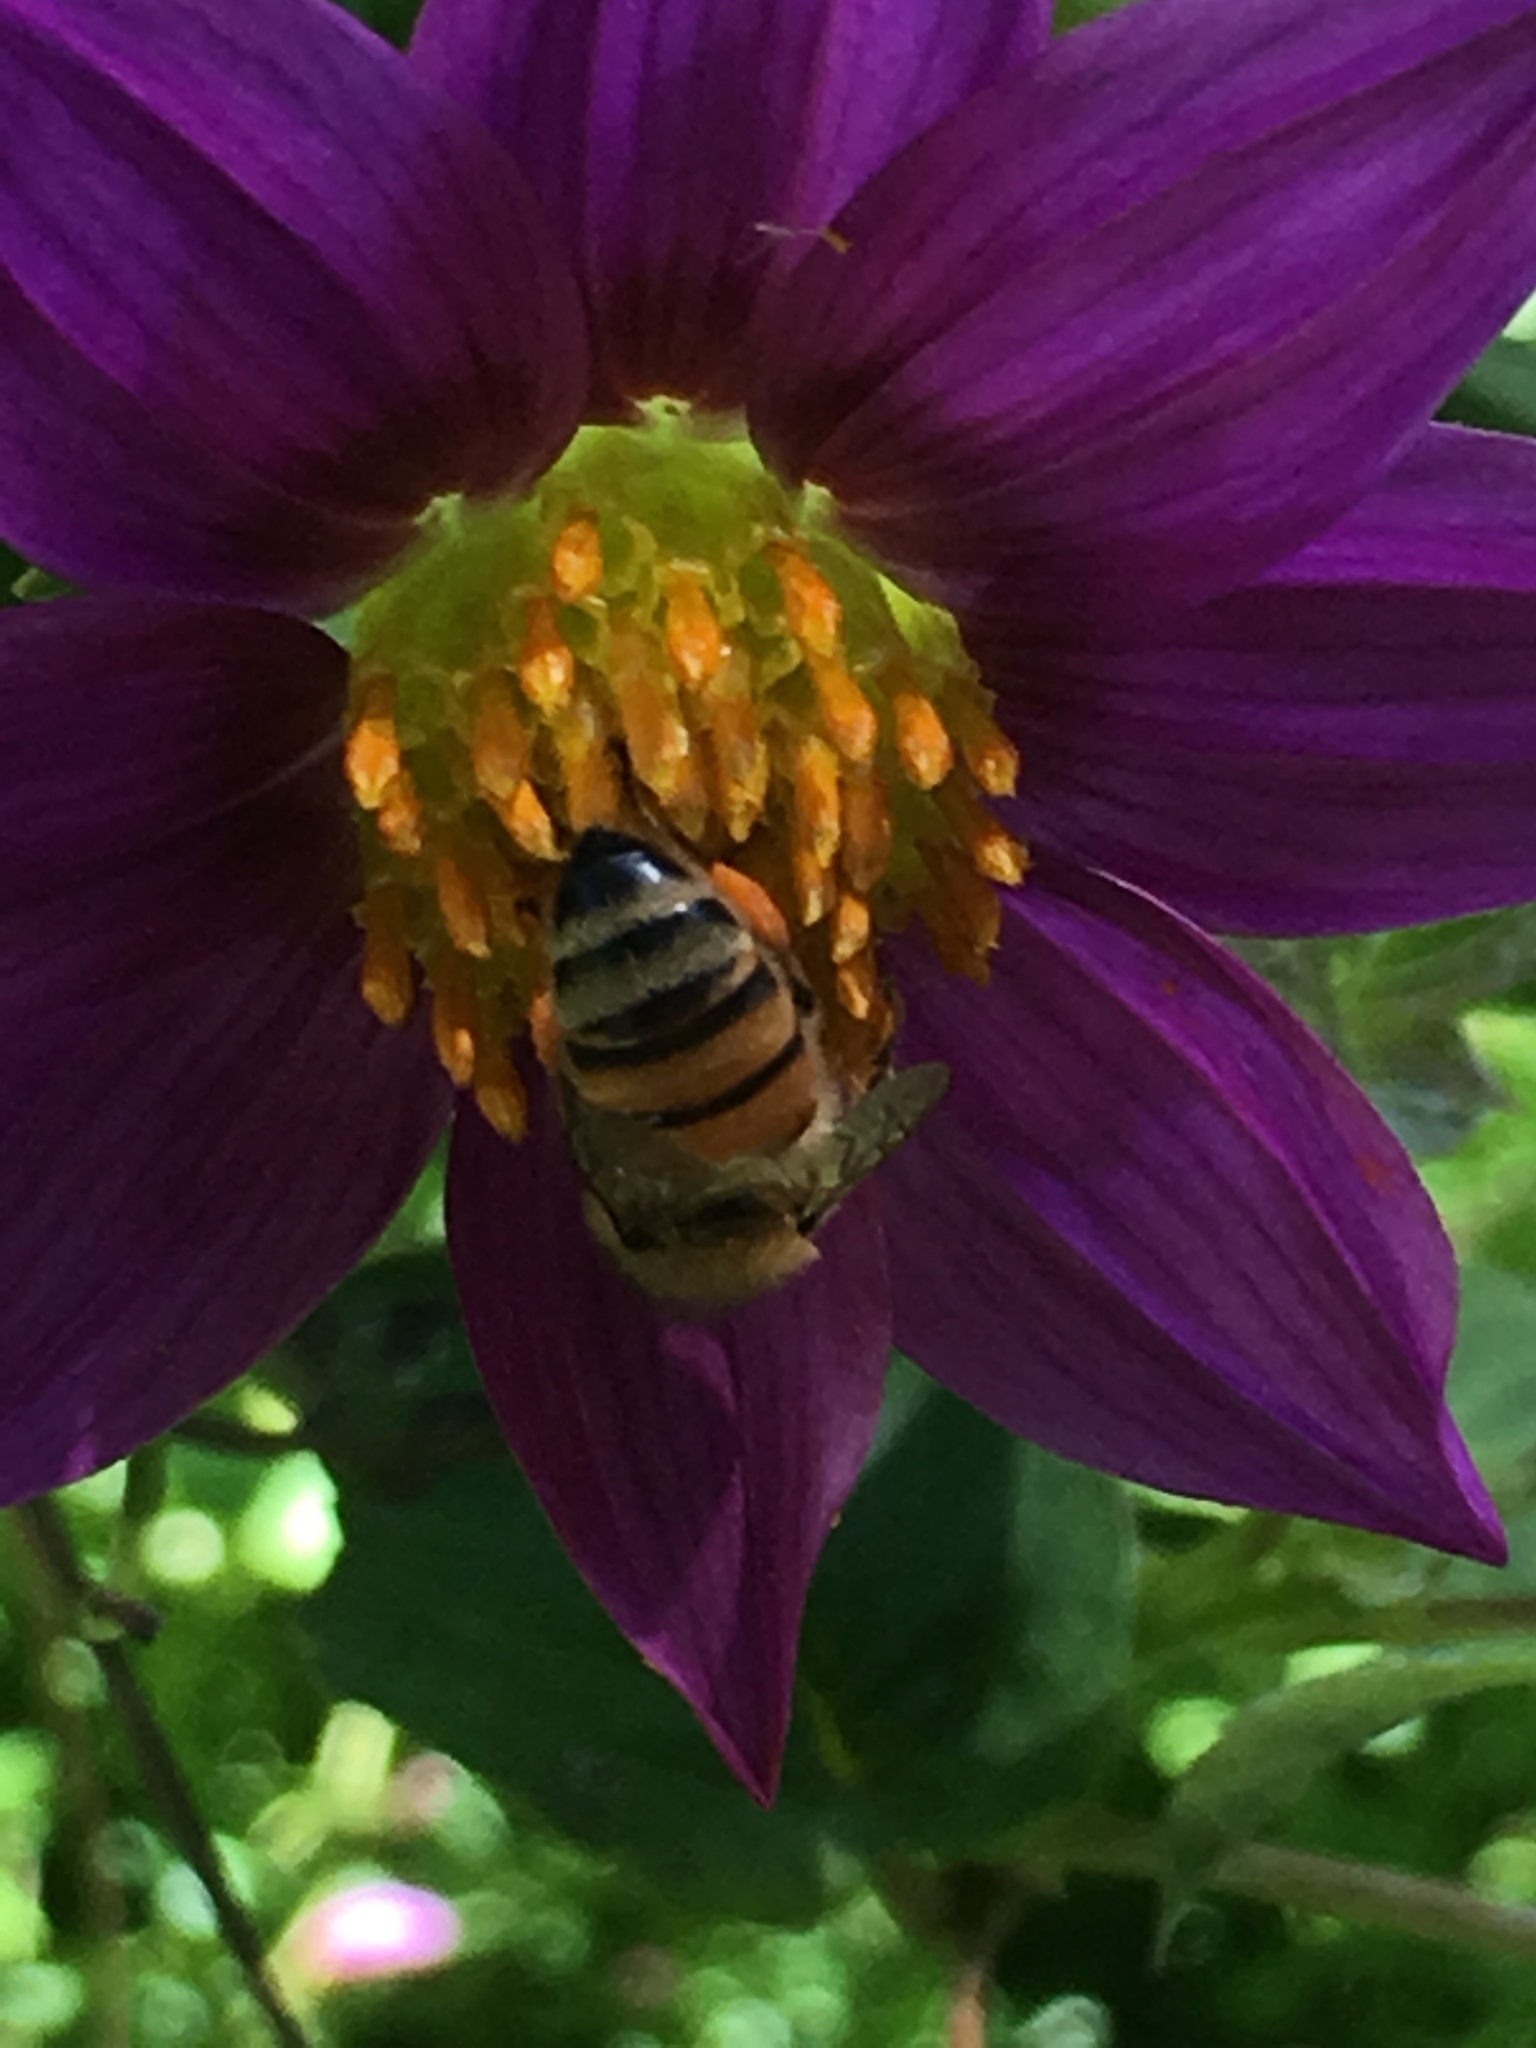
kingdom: Animalia
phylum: Arthropoda
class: Insecta
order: Hymenoptera
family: Apidae
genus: Apis
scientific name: Apis mellifera
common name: Honey bee
